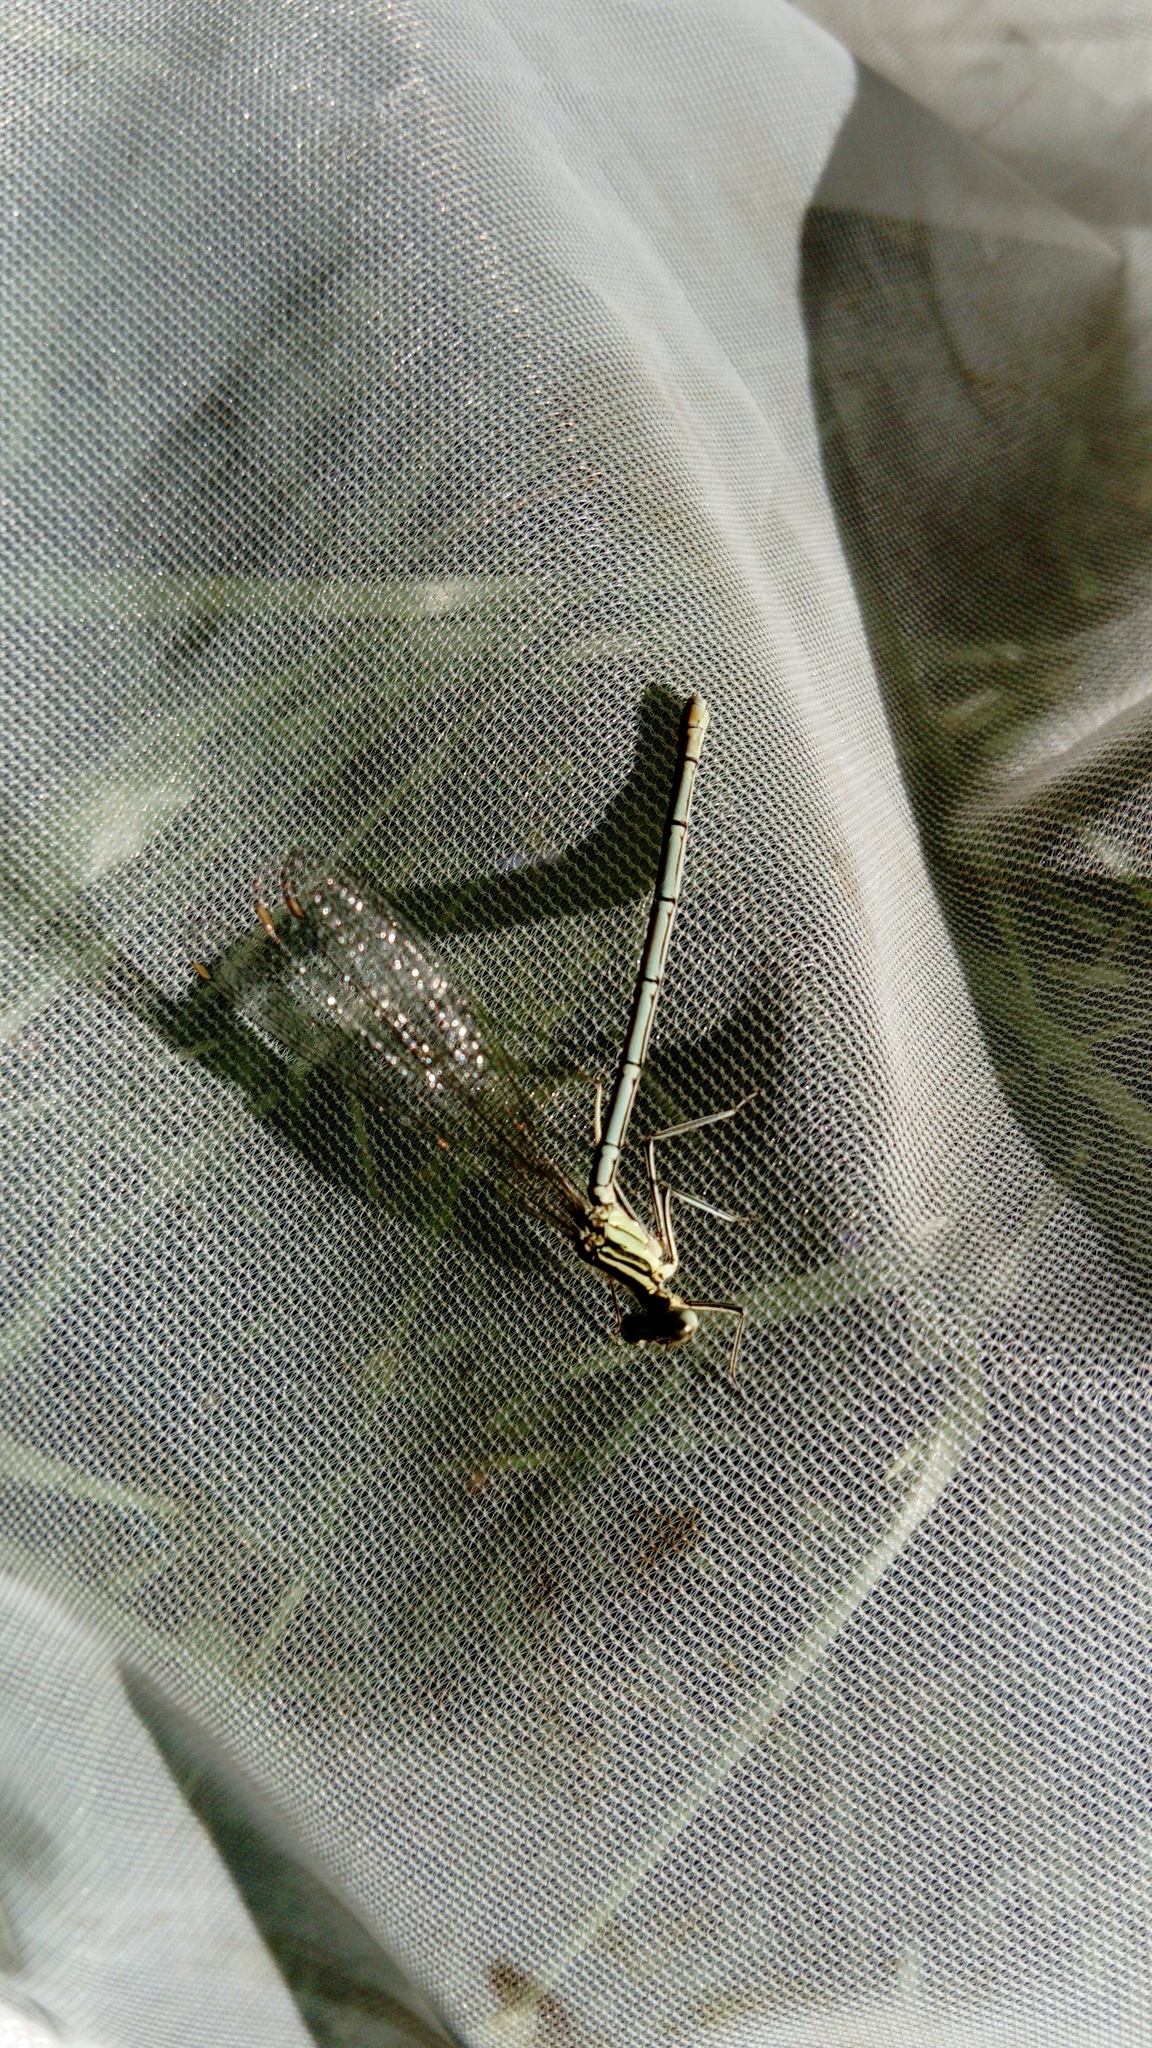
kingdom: Animalia
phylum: Arthropoda
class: Insecta
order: Odonata
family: Platycnemididae
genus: Platycnemis
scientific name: Platycnemis pennipes
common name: White-legged damselfly
